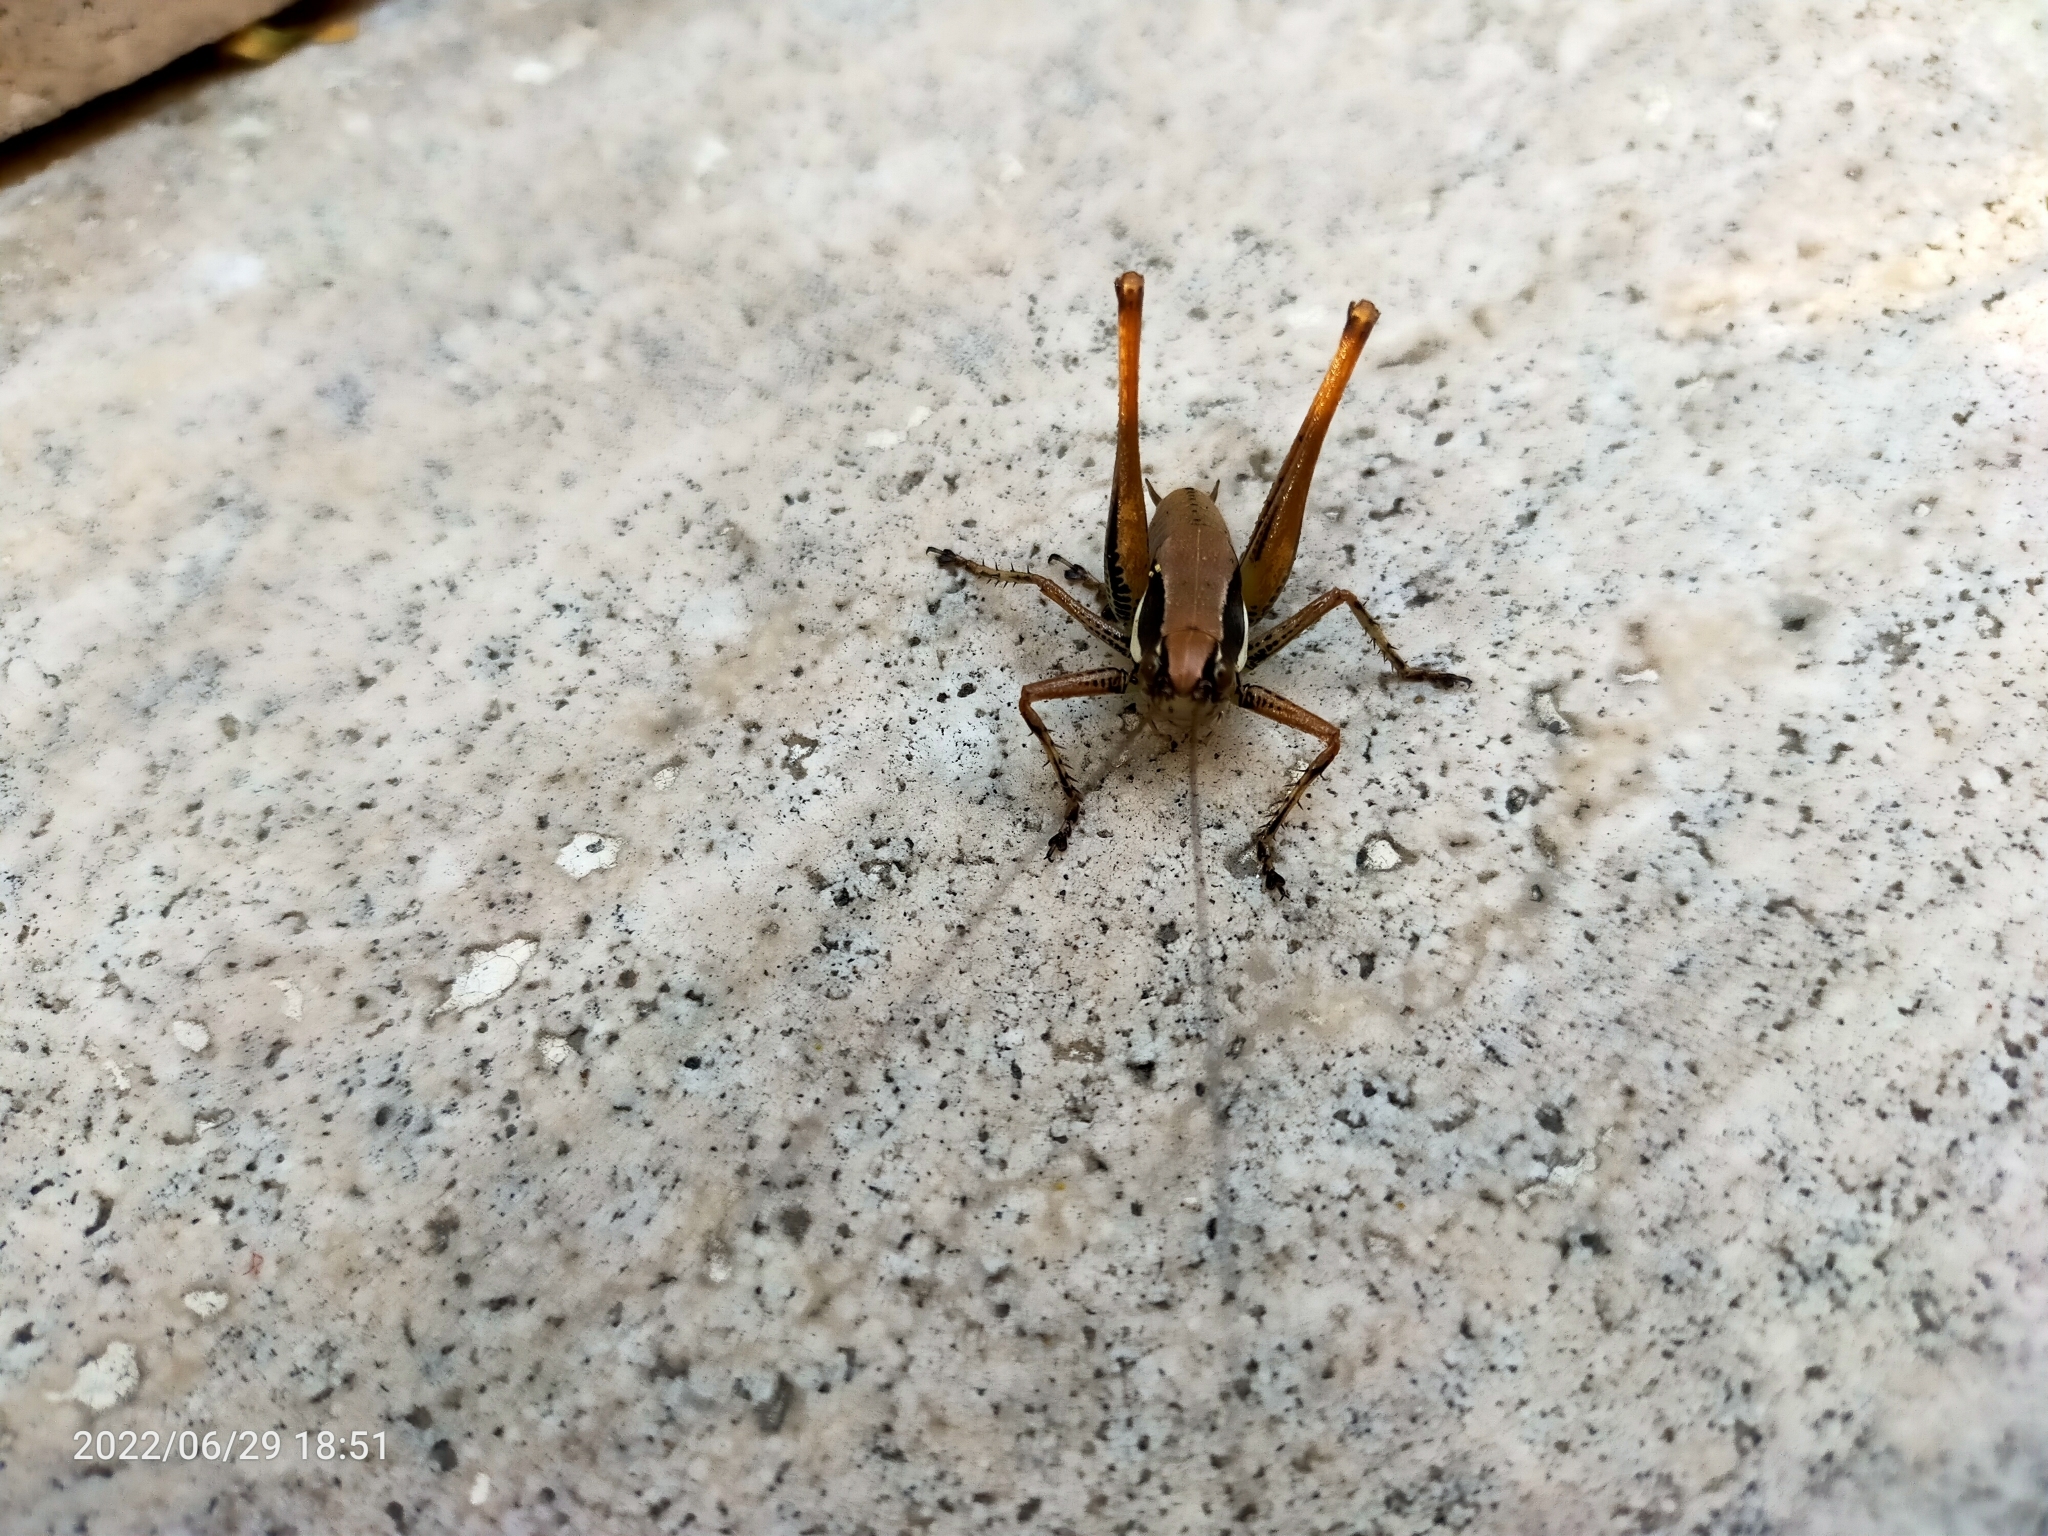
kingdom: Animalia
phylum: Arthropoda
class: Insecta
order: Orthoptera
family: Tettigoniidae
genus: Eupholidoptera
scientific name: Eupholidoptera smyrnensis
